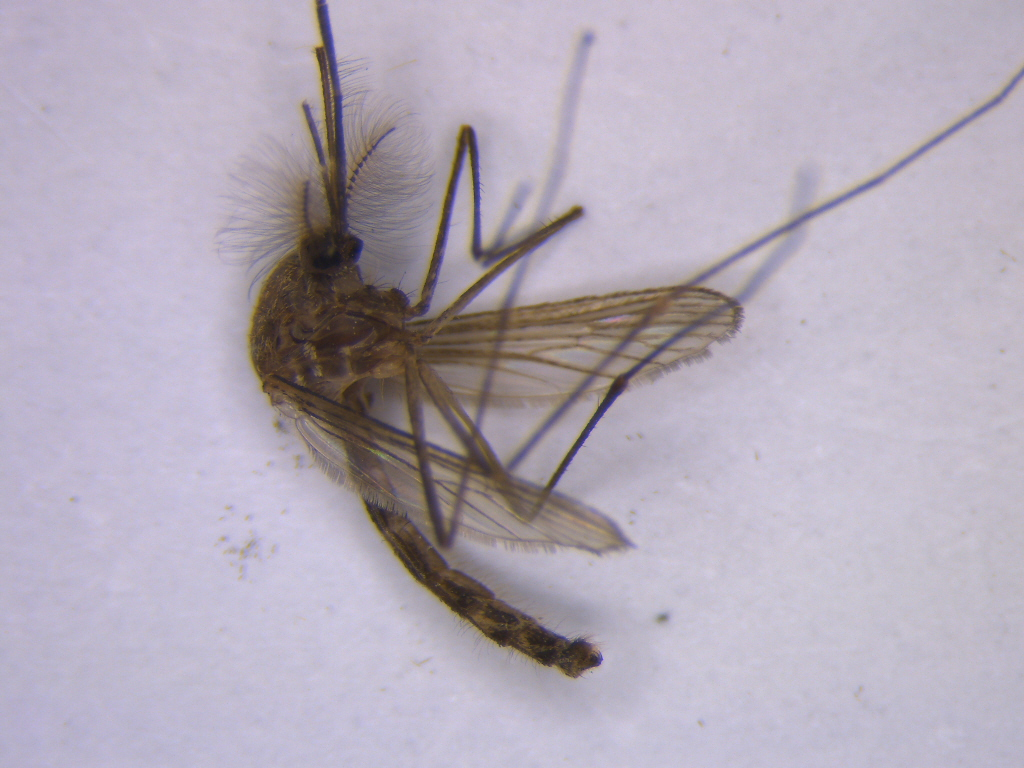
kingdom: Animalia
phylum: Arthropoda
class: Insecta
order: Diptera
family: Culicidae
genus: Culex
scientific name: Culex pervigilans
